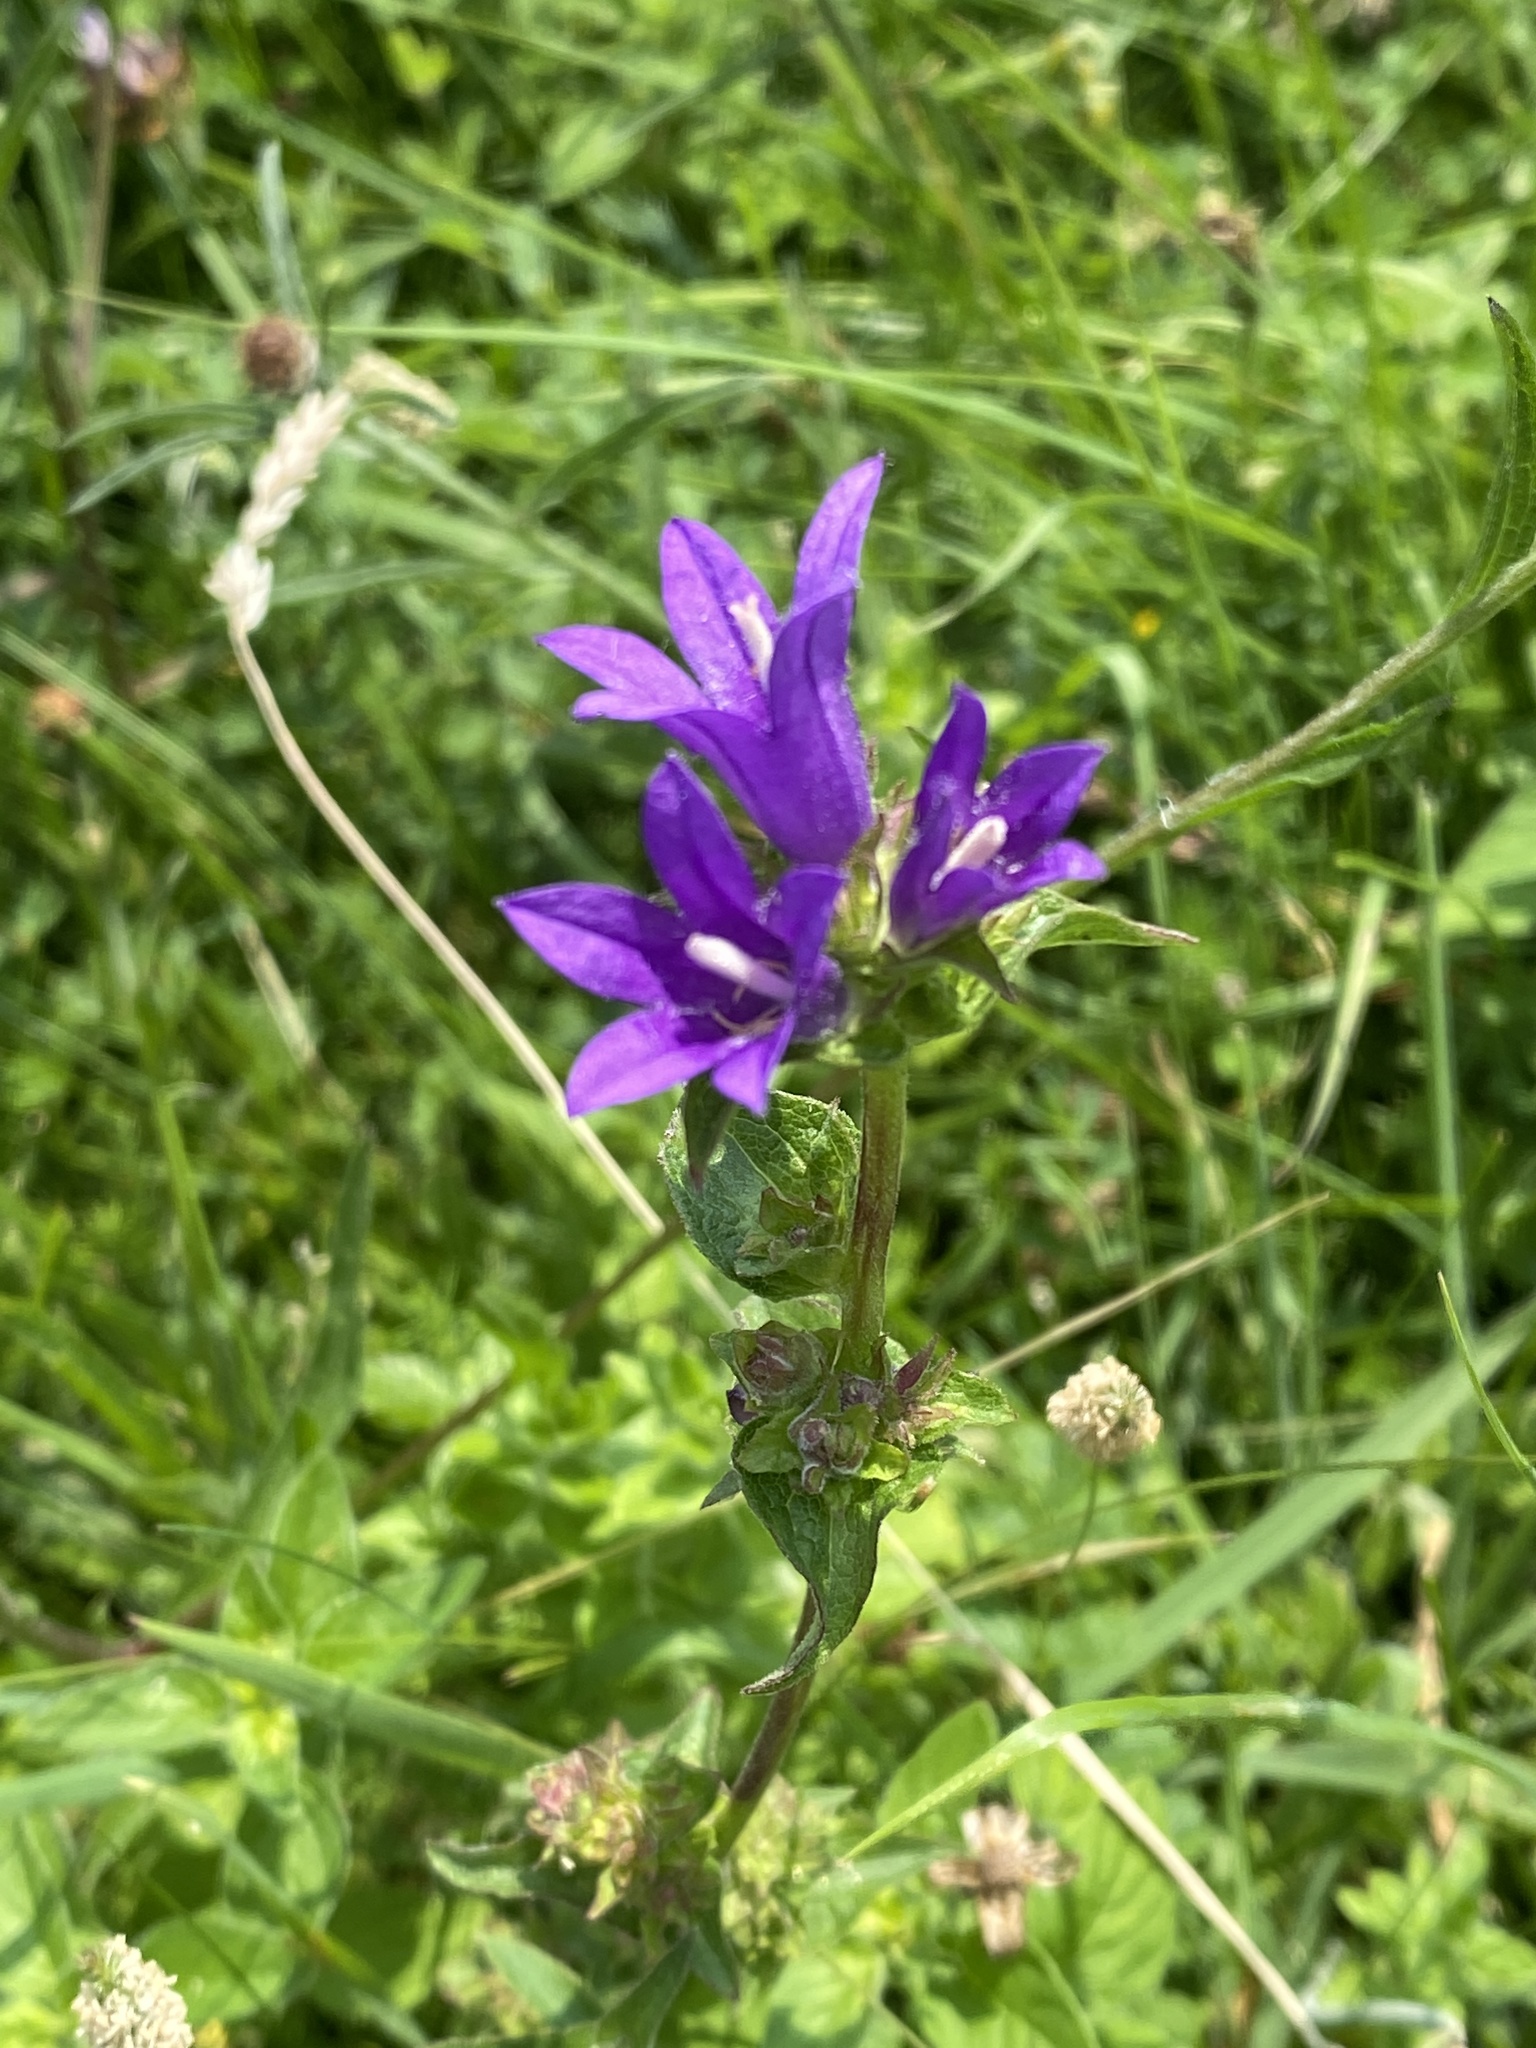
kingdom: Plantae
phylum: Tracheophyta
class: Magnoliopsida
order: Asterales
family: Campanulaceae
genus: Campanula
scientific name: Campanula glomerata
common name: Clustered bellflower
